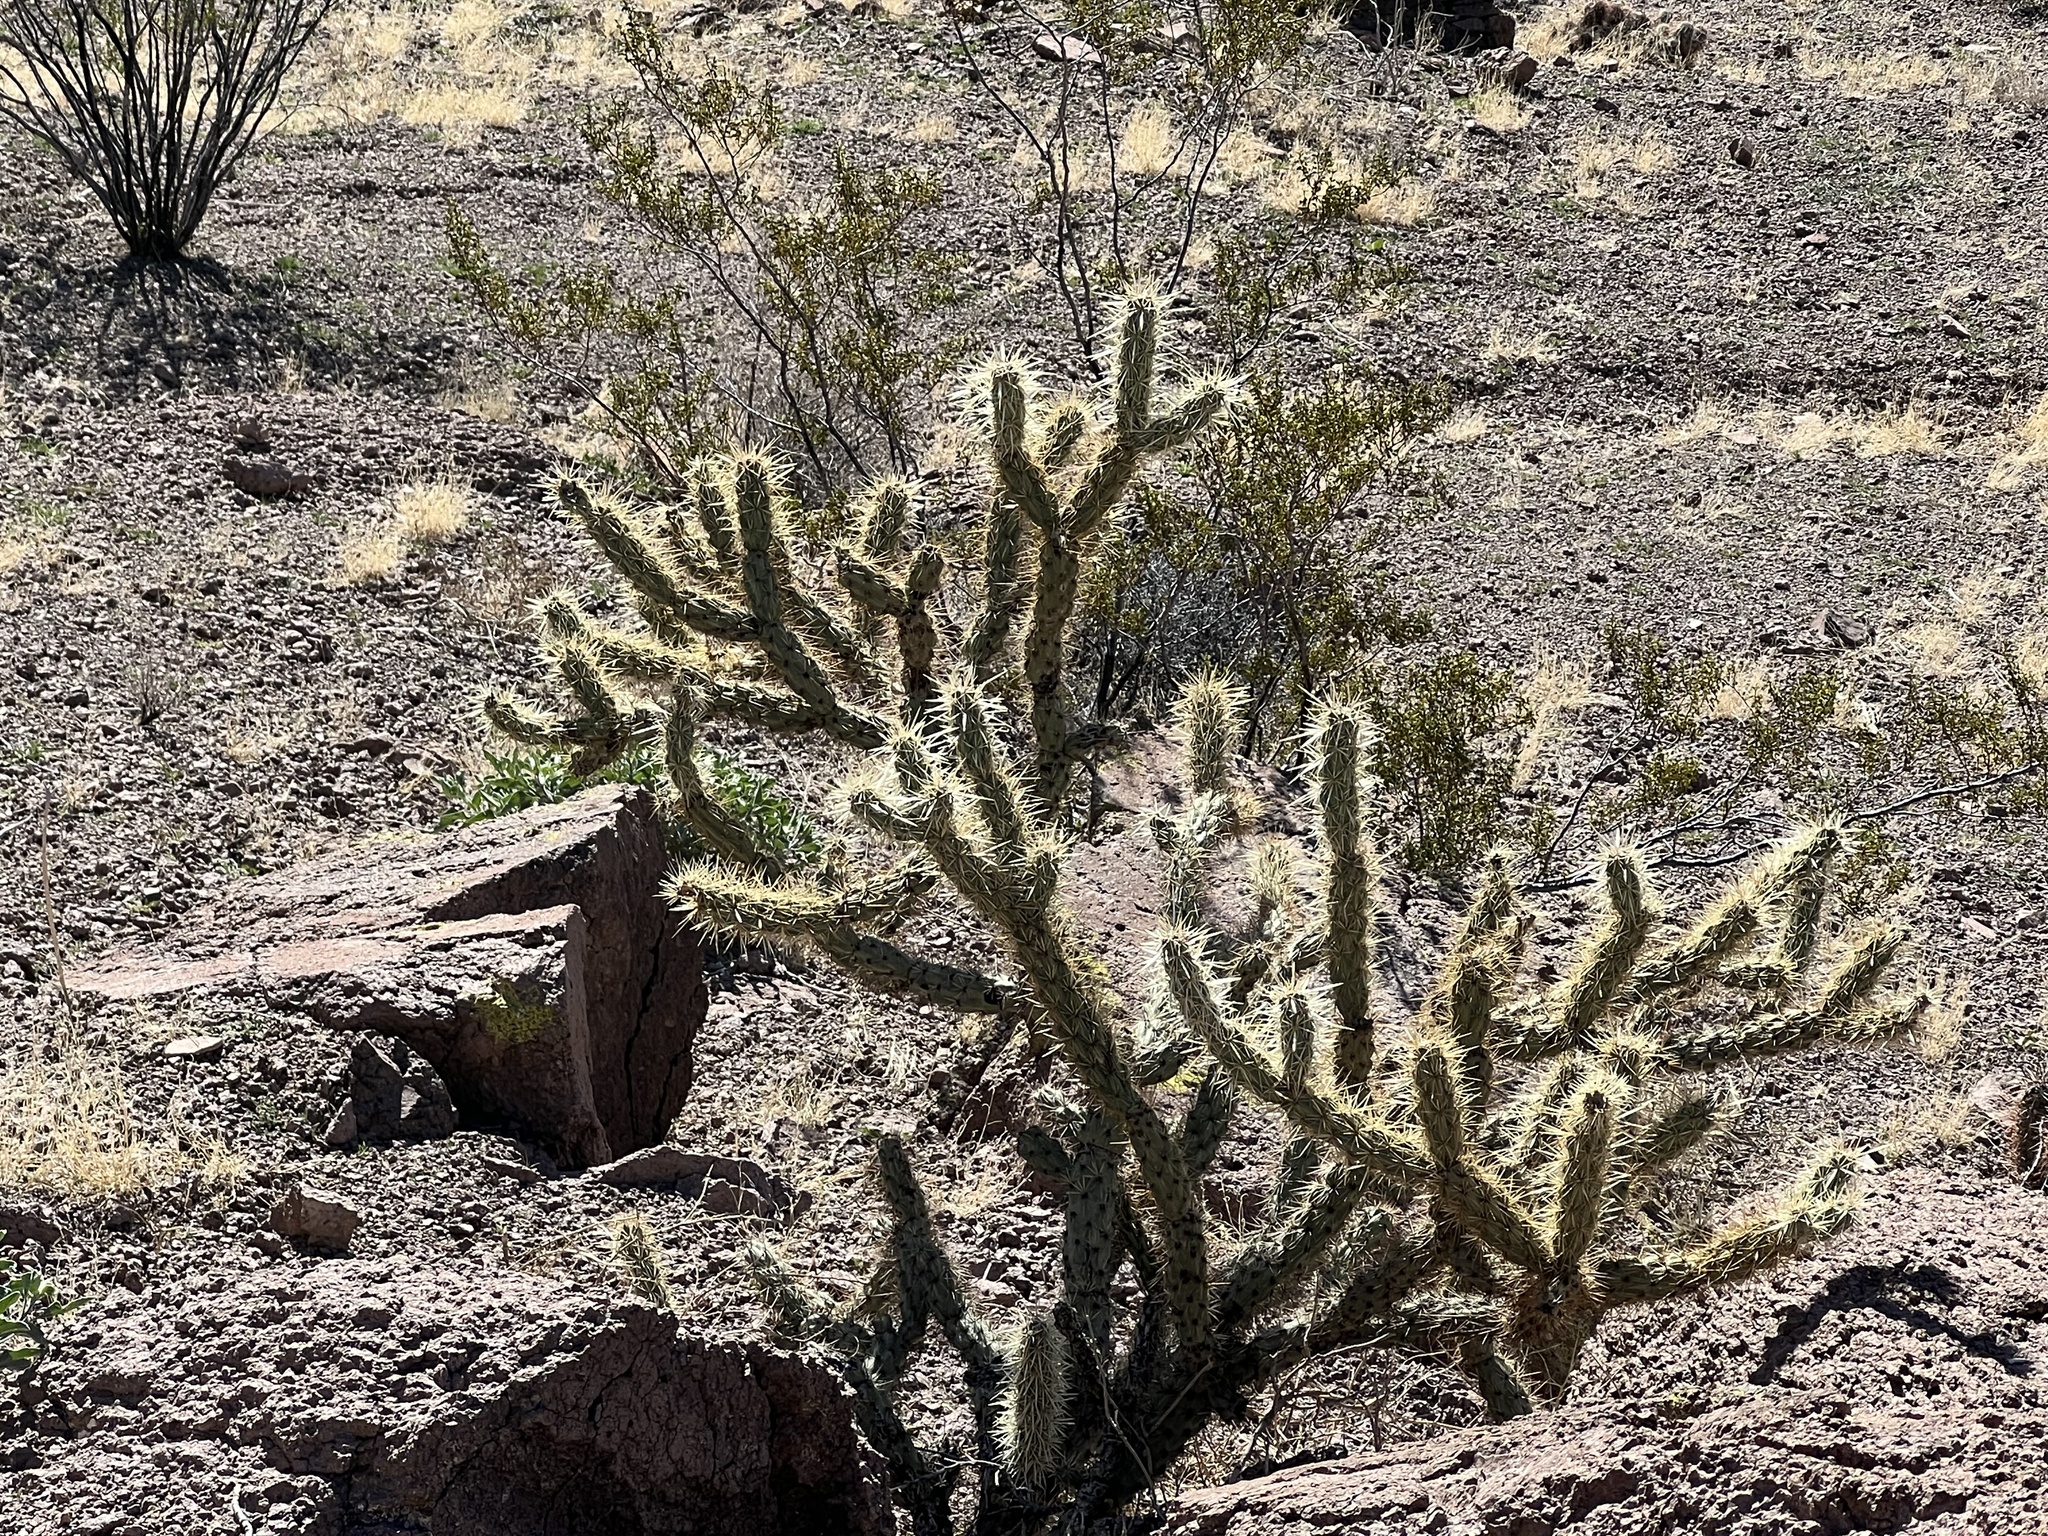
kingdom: Plantae
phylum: Tracheophyta
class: Magnoliopsida
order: Caryophyllales
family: Cactaceae
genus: Cylindropuntia
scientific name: Cylindropuntia acanthocarpa
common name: Buckhorn cholla
